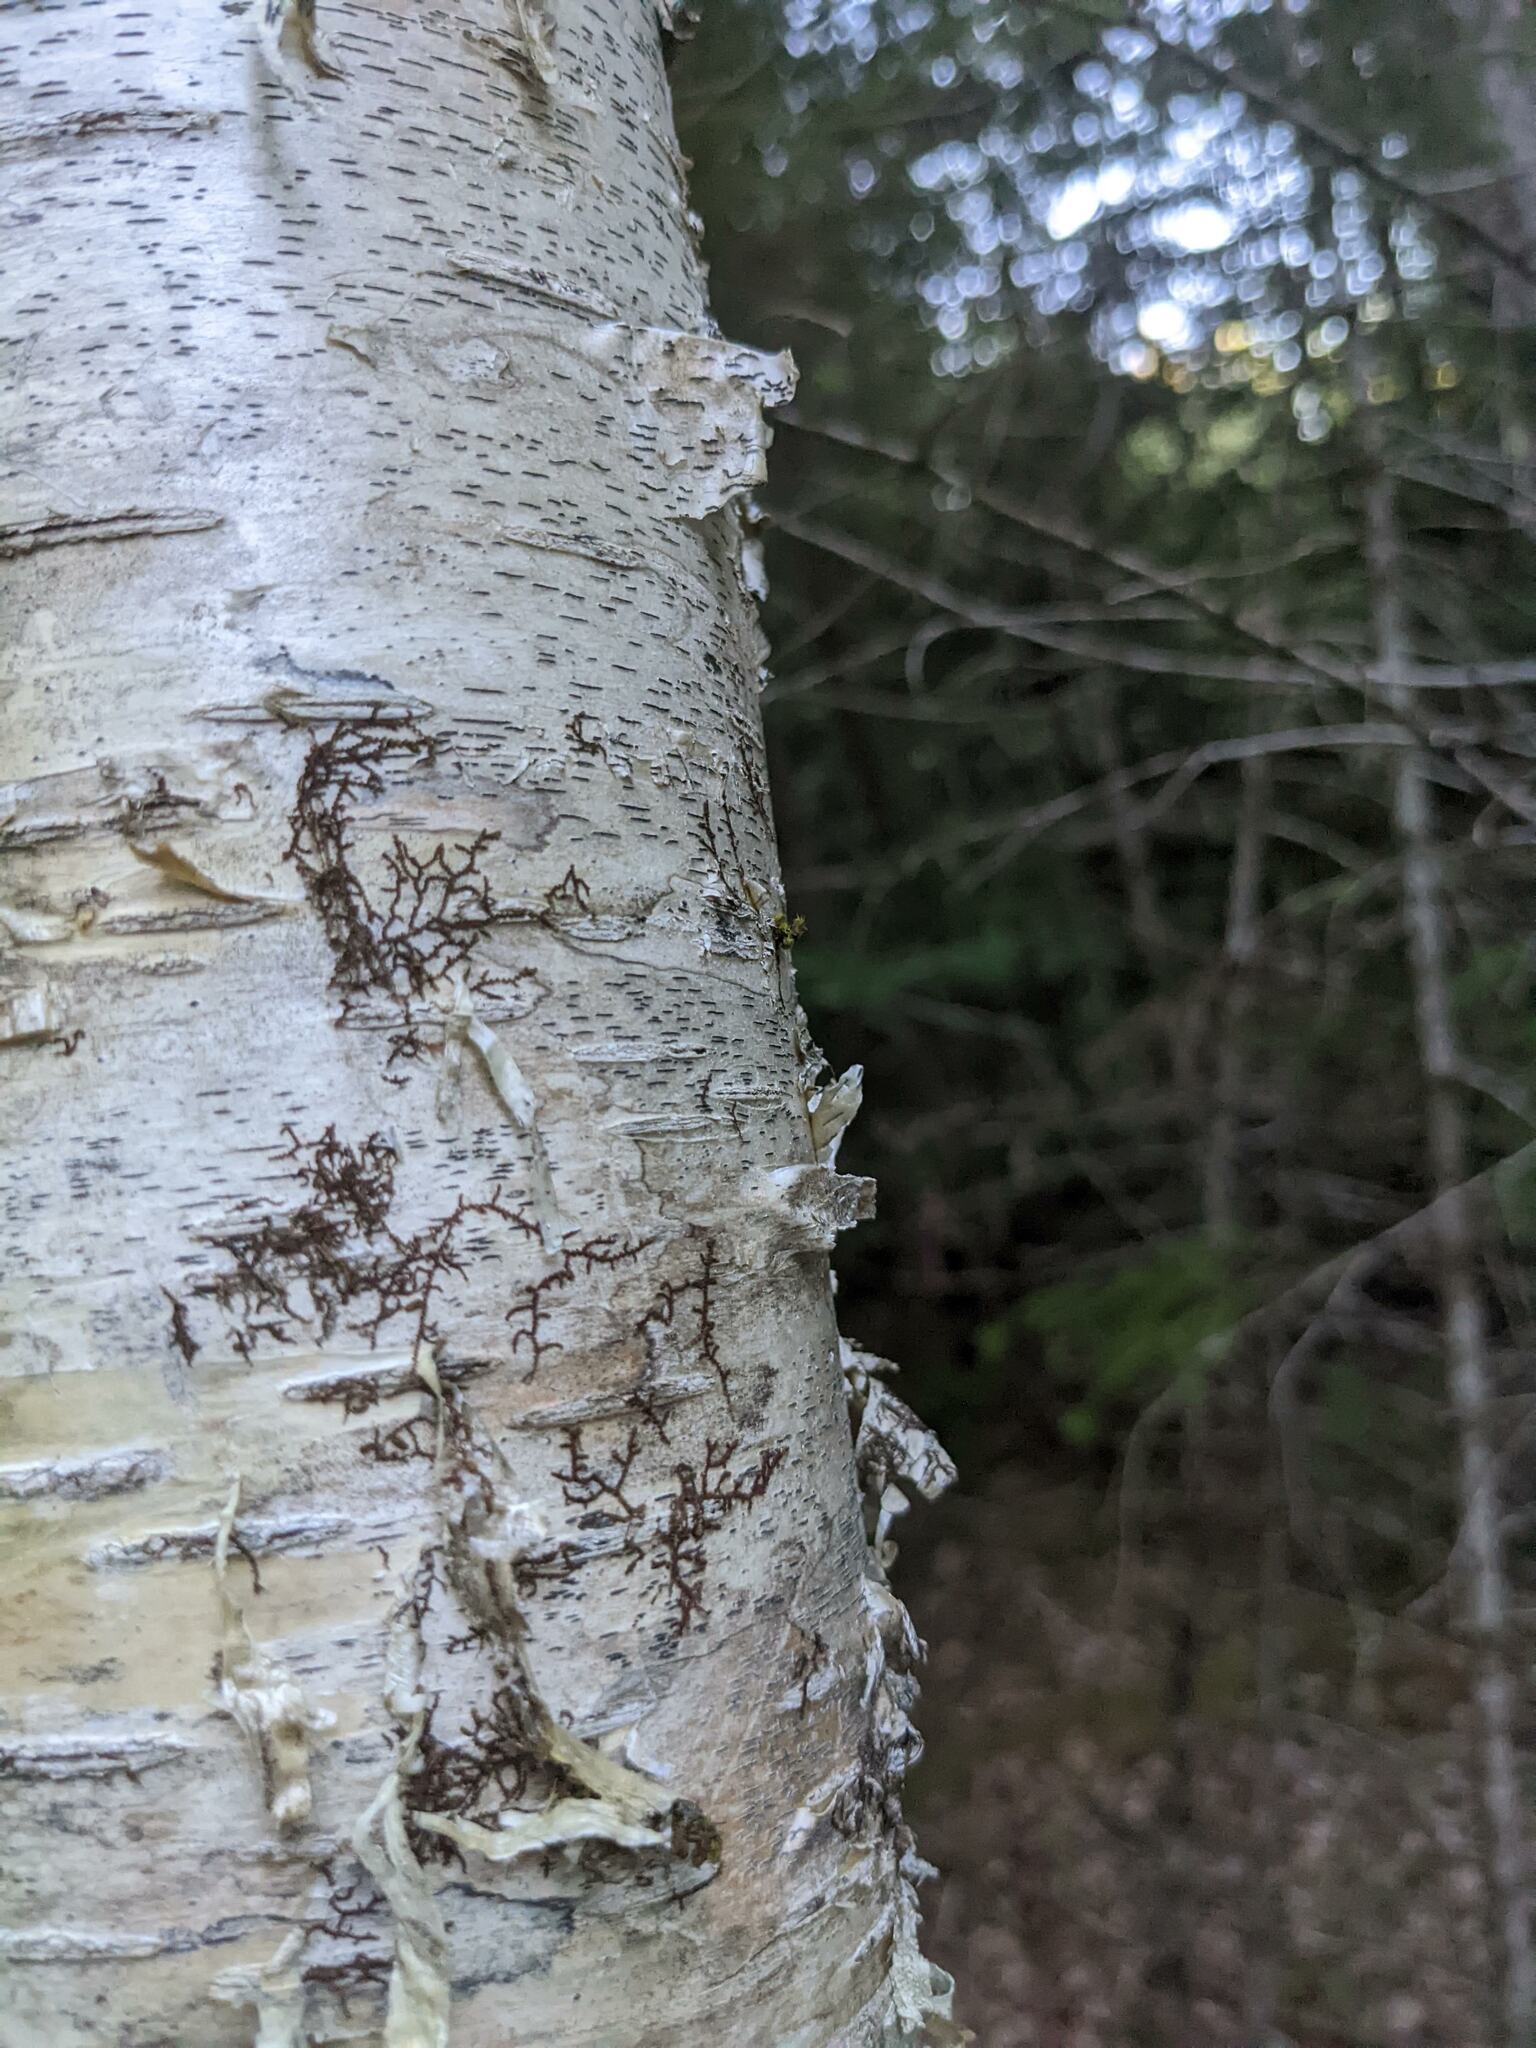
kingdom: Plantae
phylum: Marchantiophyta
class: Jungermanniopsida
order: Porellales
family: Frullaniaceae
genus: Frullania
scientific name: Frullania eboracensis
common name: New york scalewort
